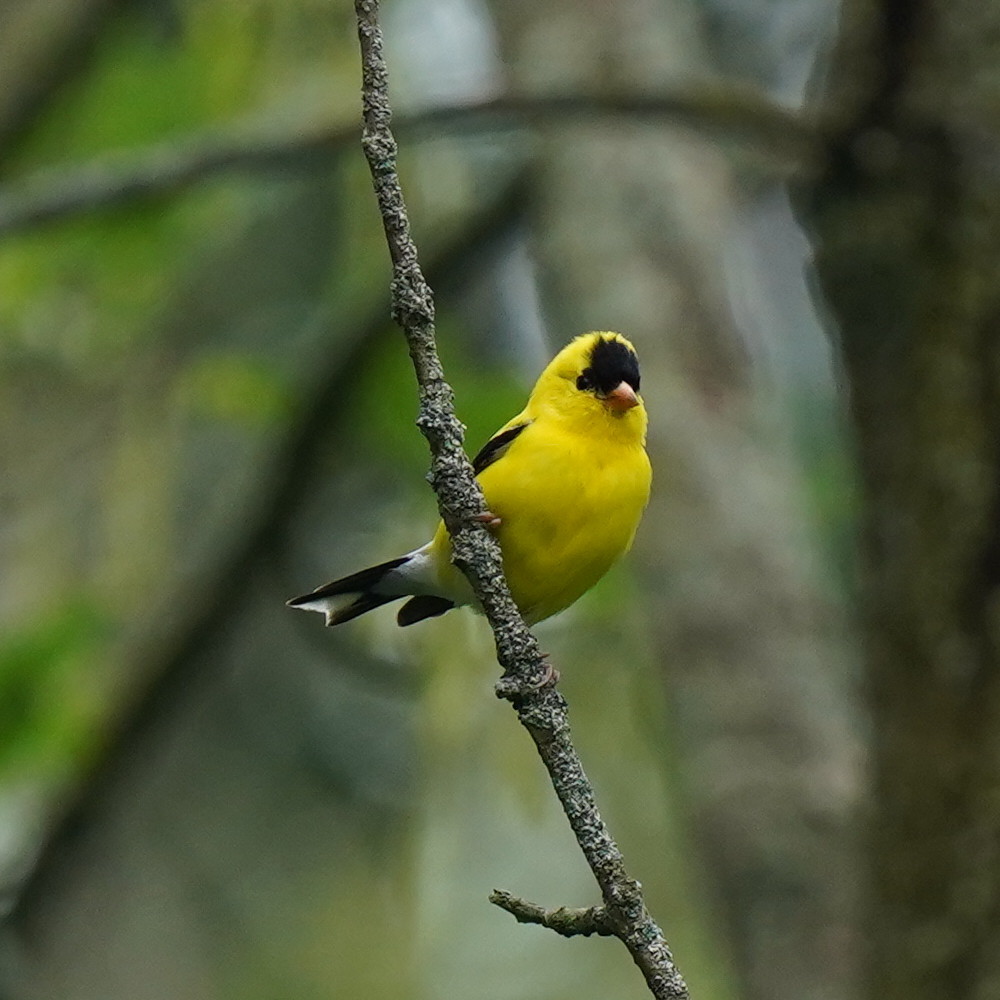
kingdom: Animalia
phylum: Chordata
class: Aves
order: Passeriformes
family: Fringillidae
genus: Spinus
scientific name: Spinus tristis
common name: American goldfinch
